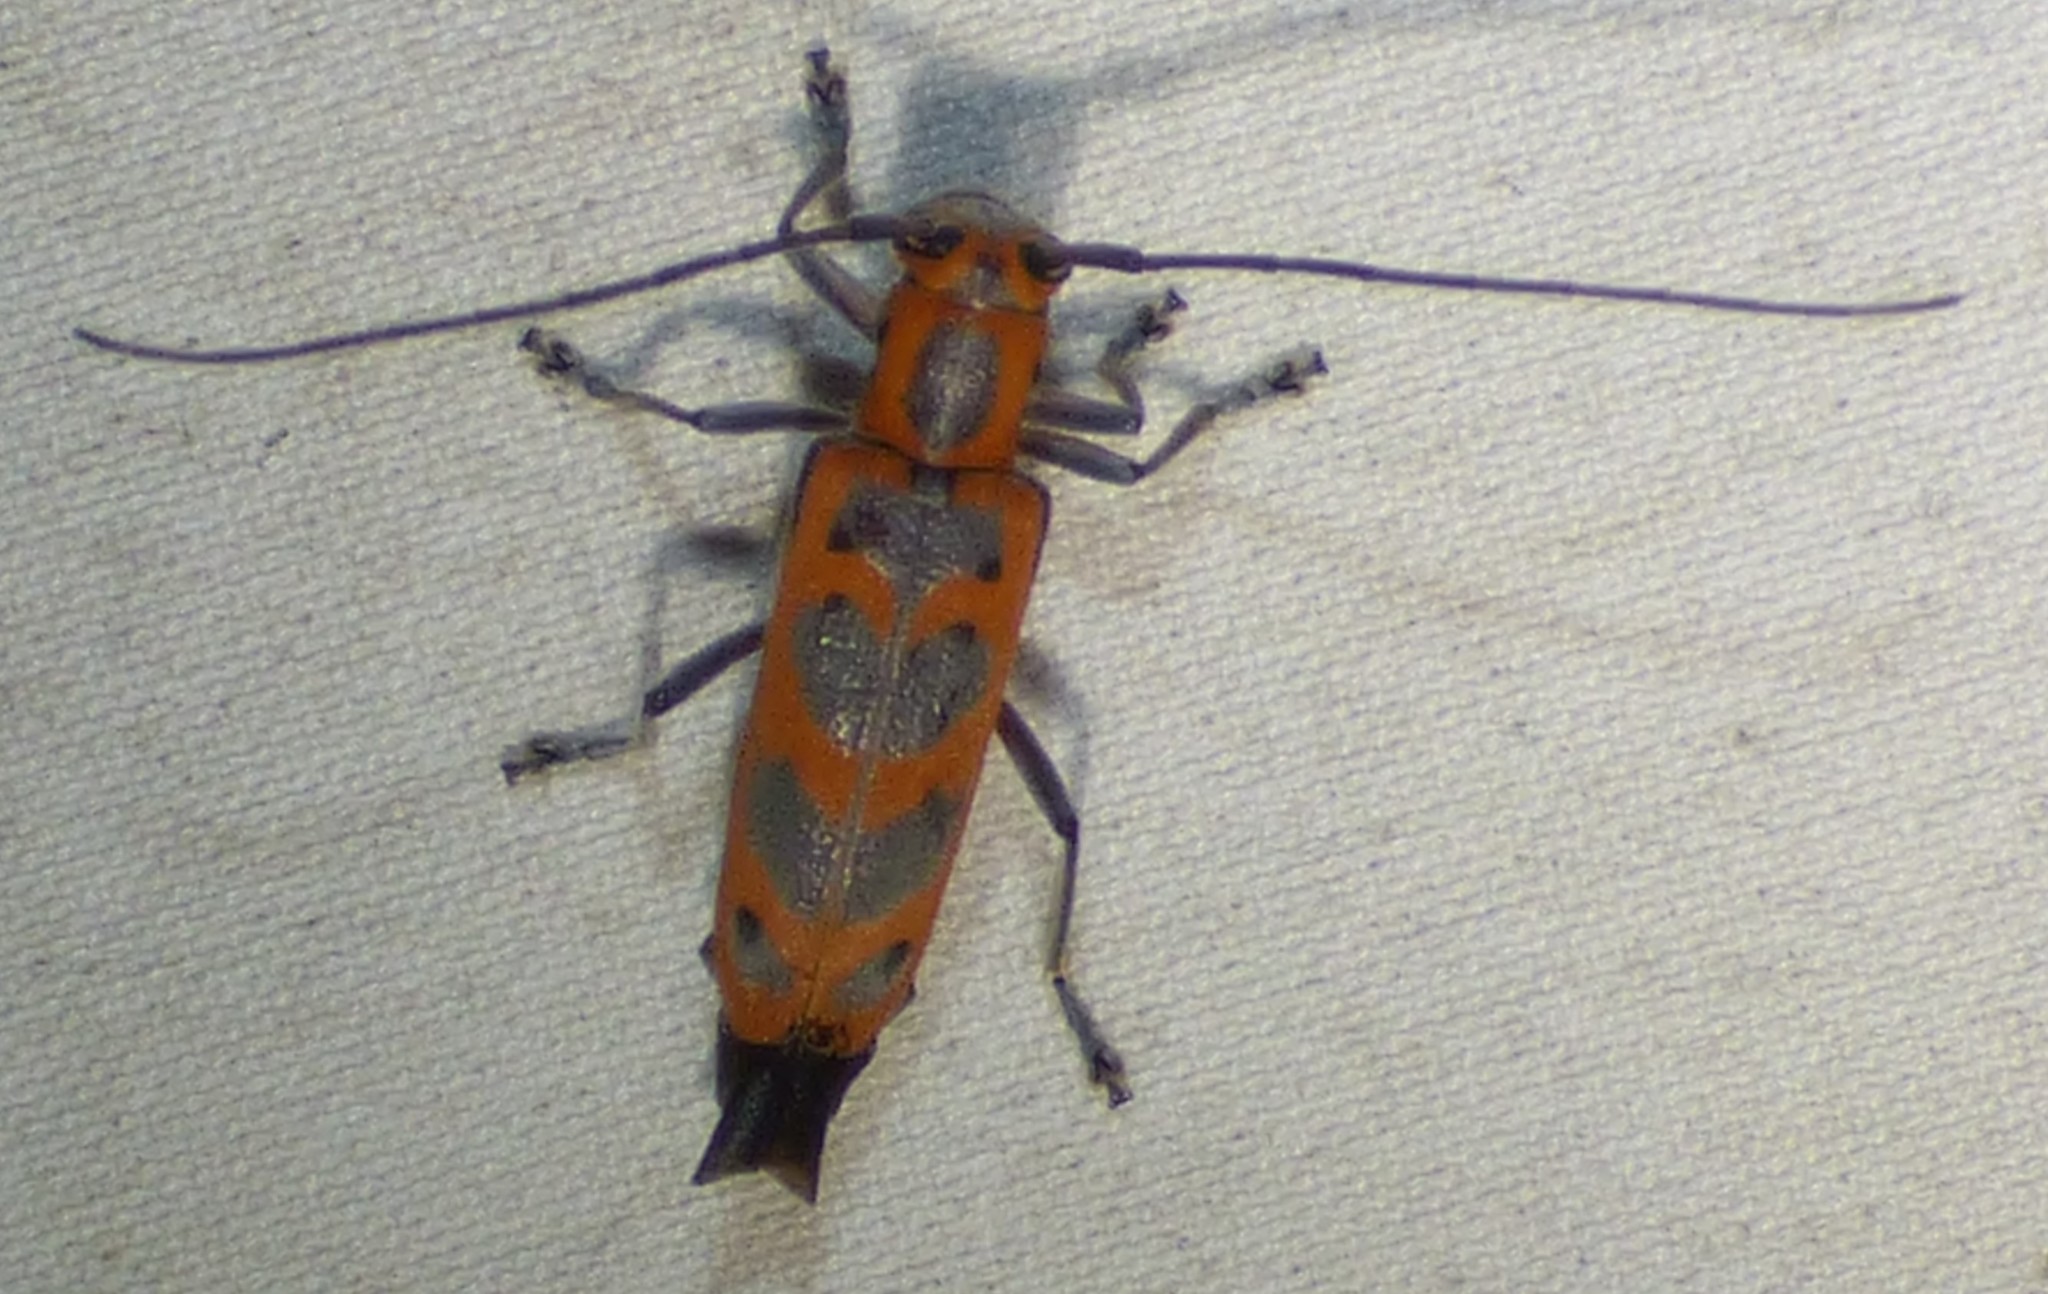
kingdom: Animalia
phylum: Arthropoda
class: Insecta
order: Coleoptera
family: Cerambycidae
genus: Saperda
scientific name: Saperda tridentata
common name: Elm borer
